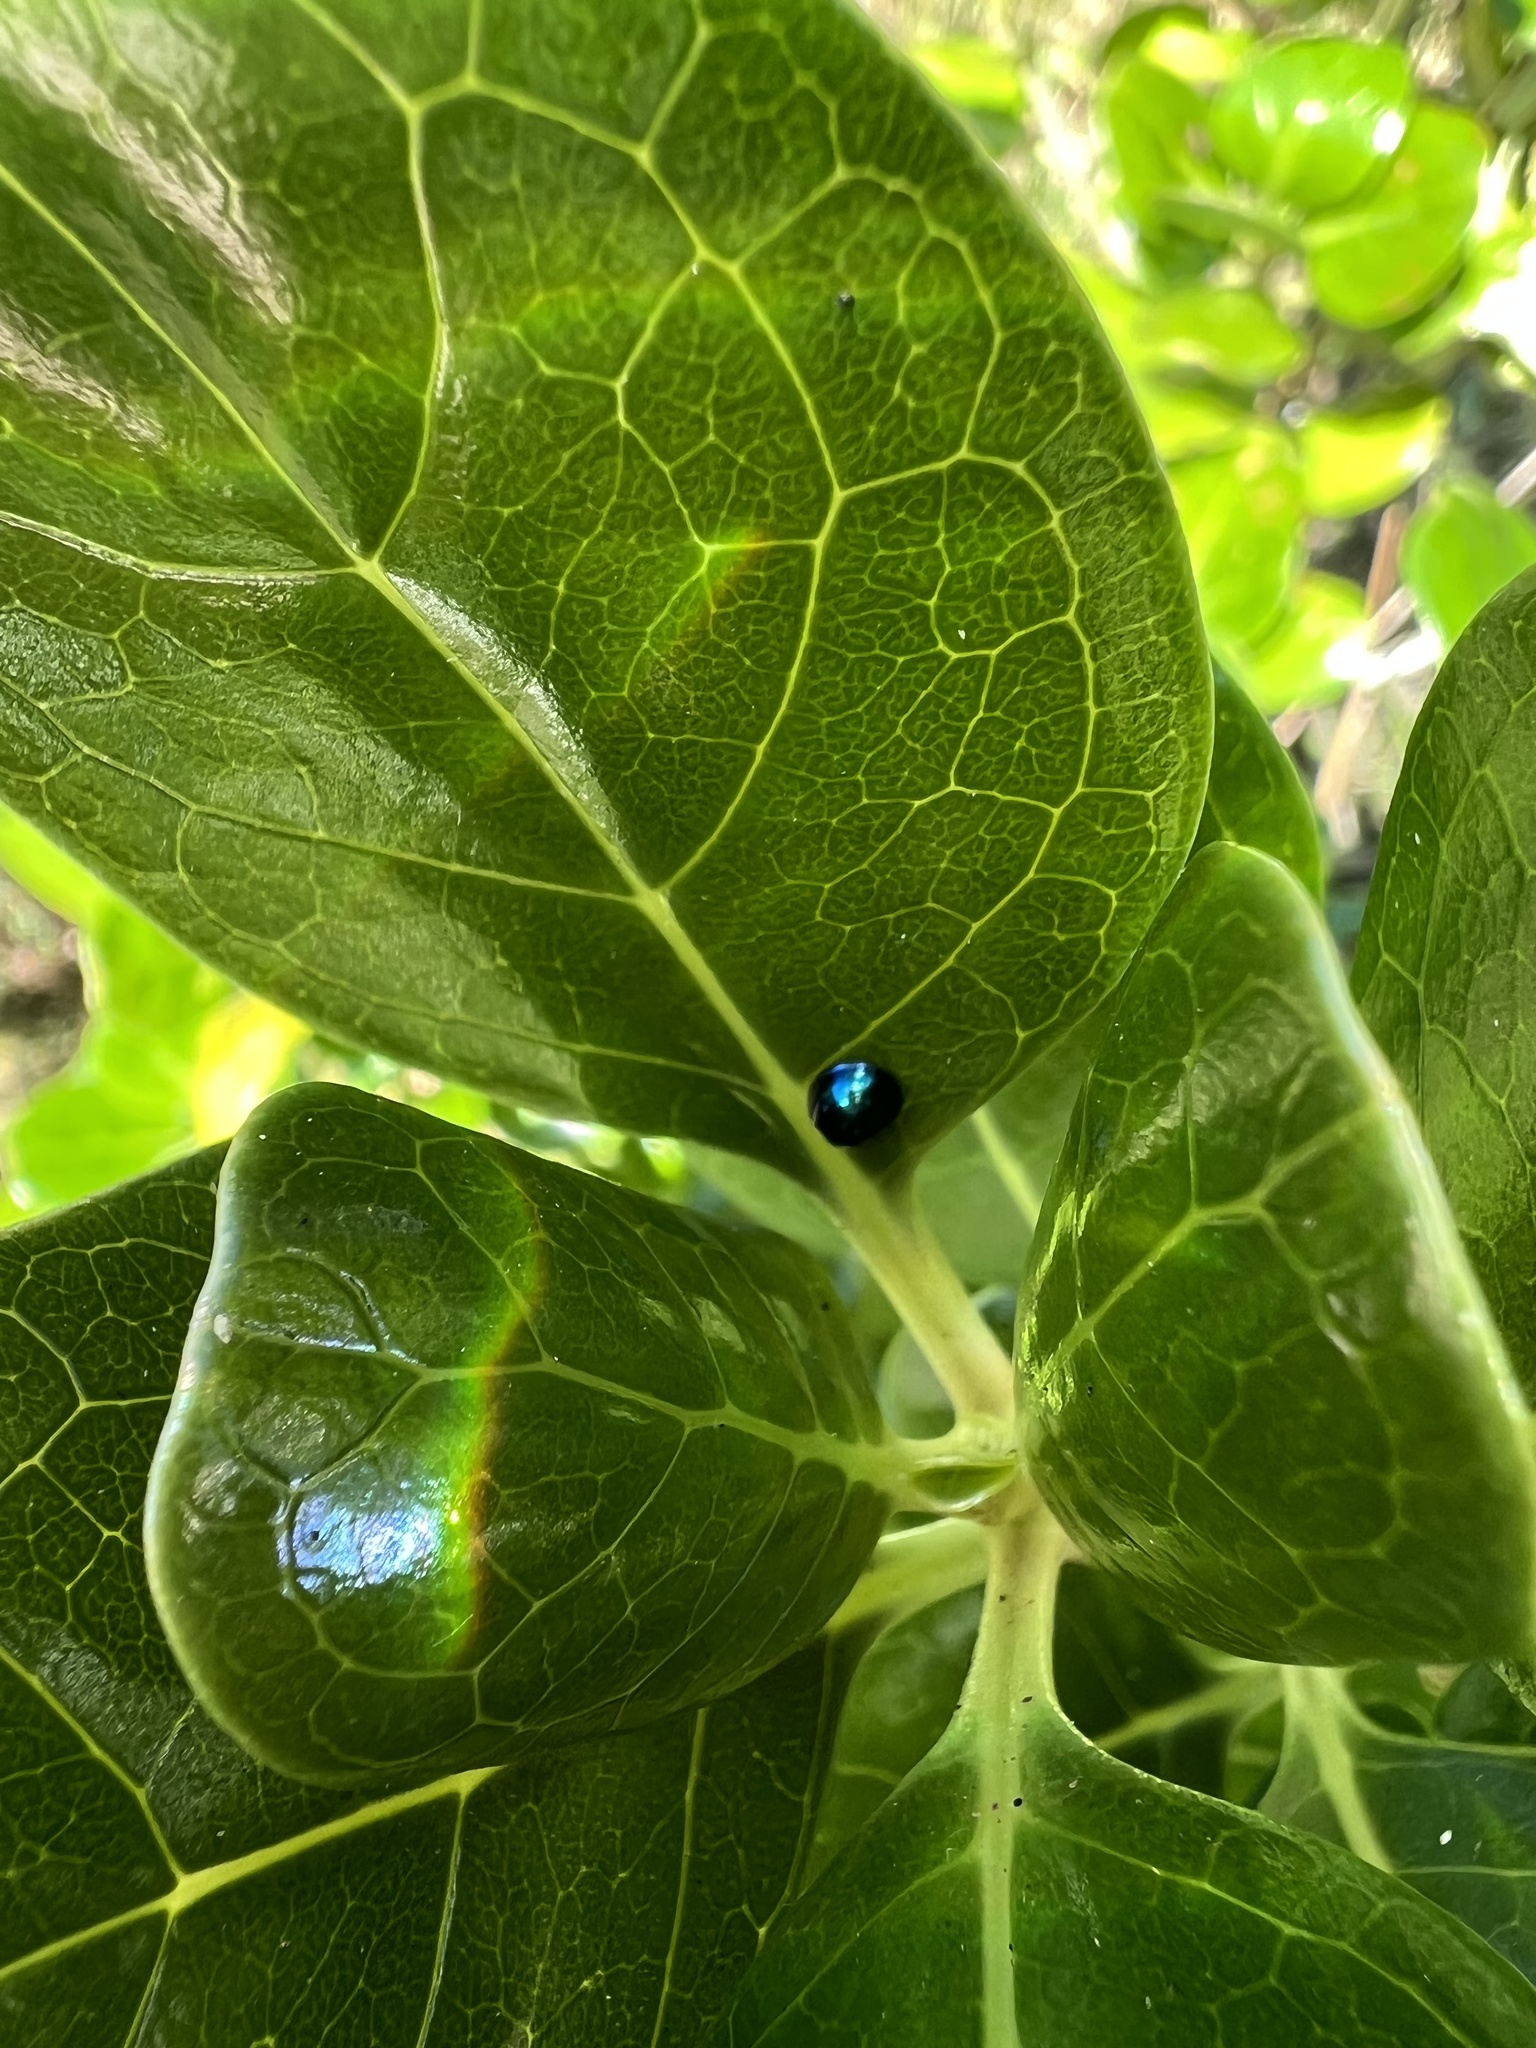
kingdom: Animalia
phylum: Arthropoda
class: Insecta
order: Coleoptera
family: Coccinellidae
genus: Halmus
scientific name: Halmus chalybeus
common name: Steel blue ladybird beetle
